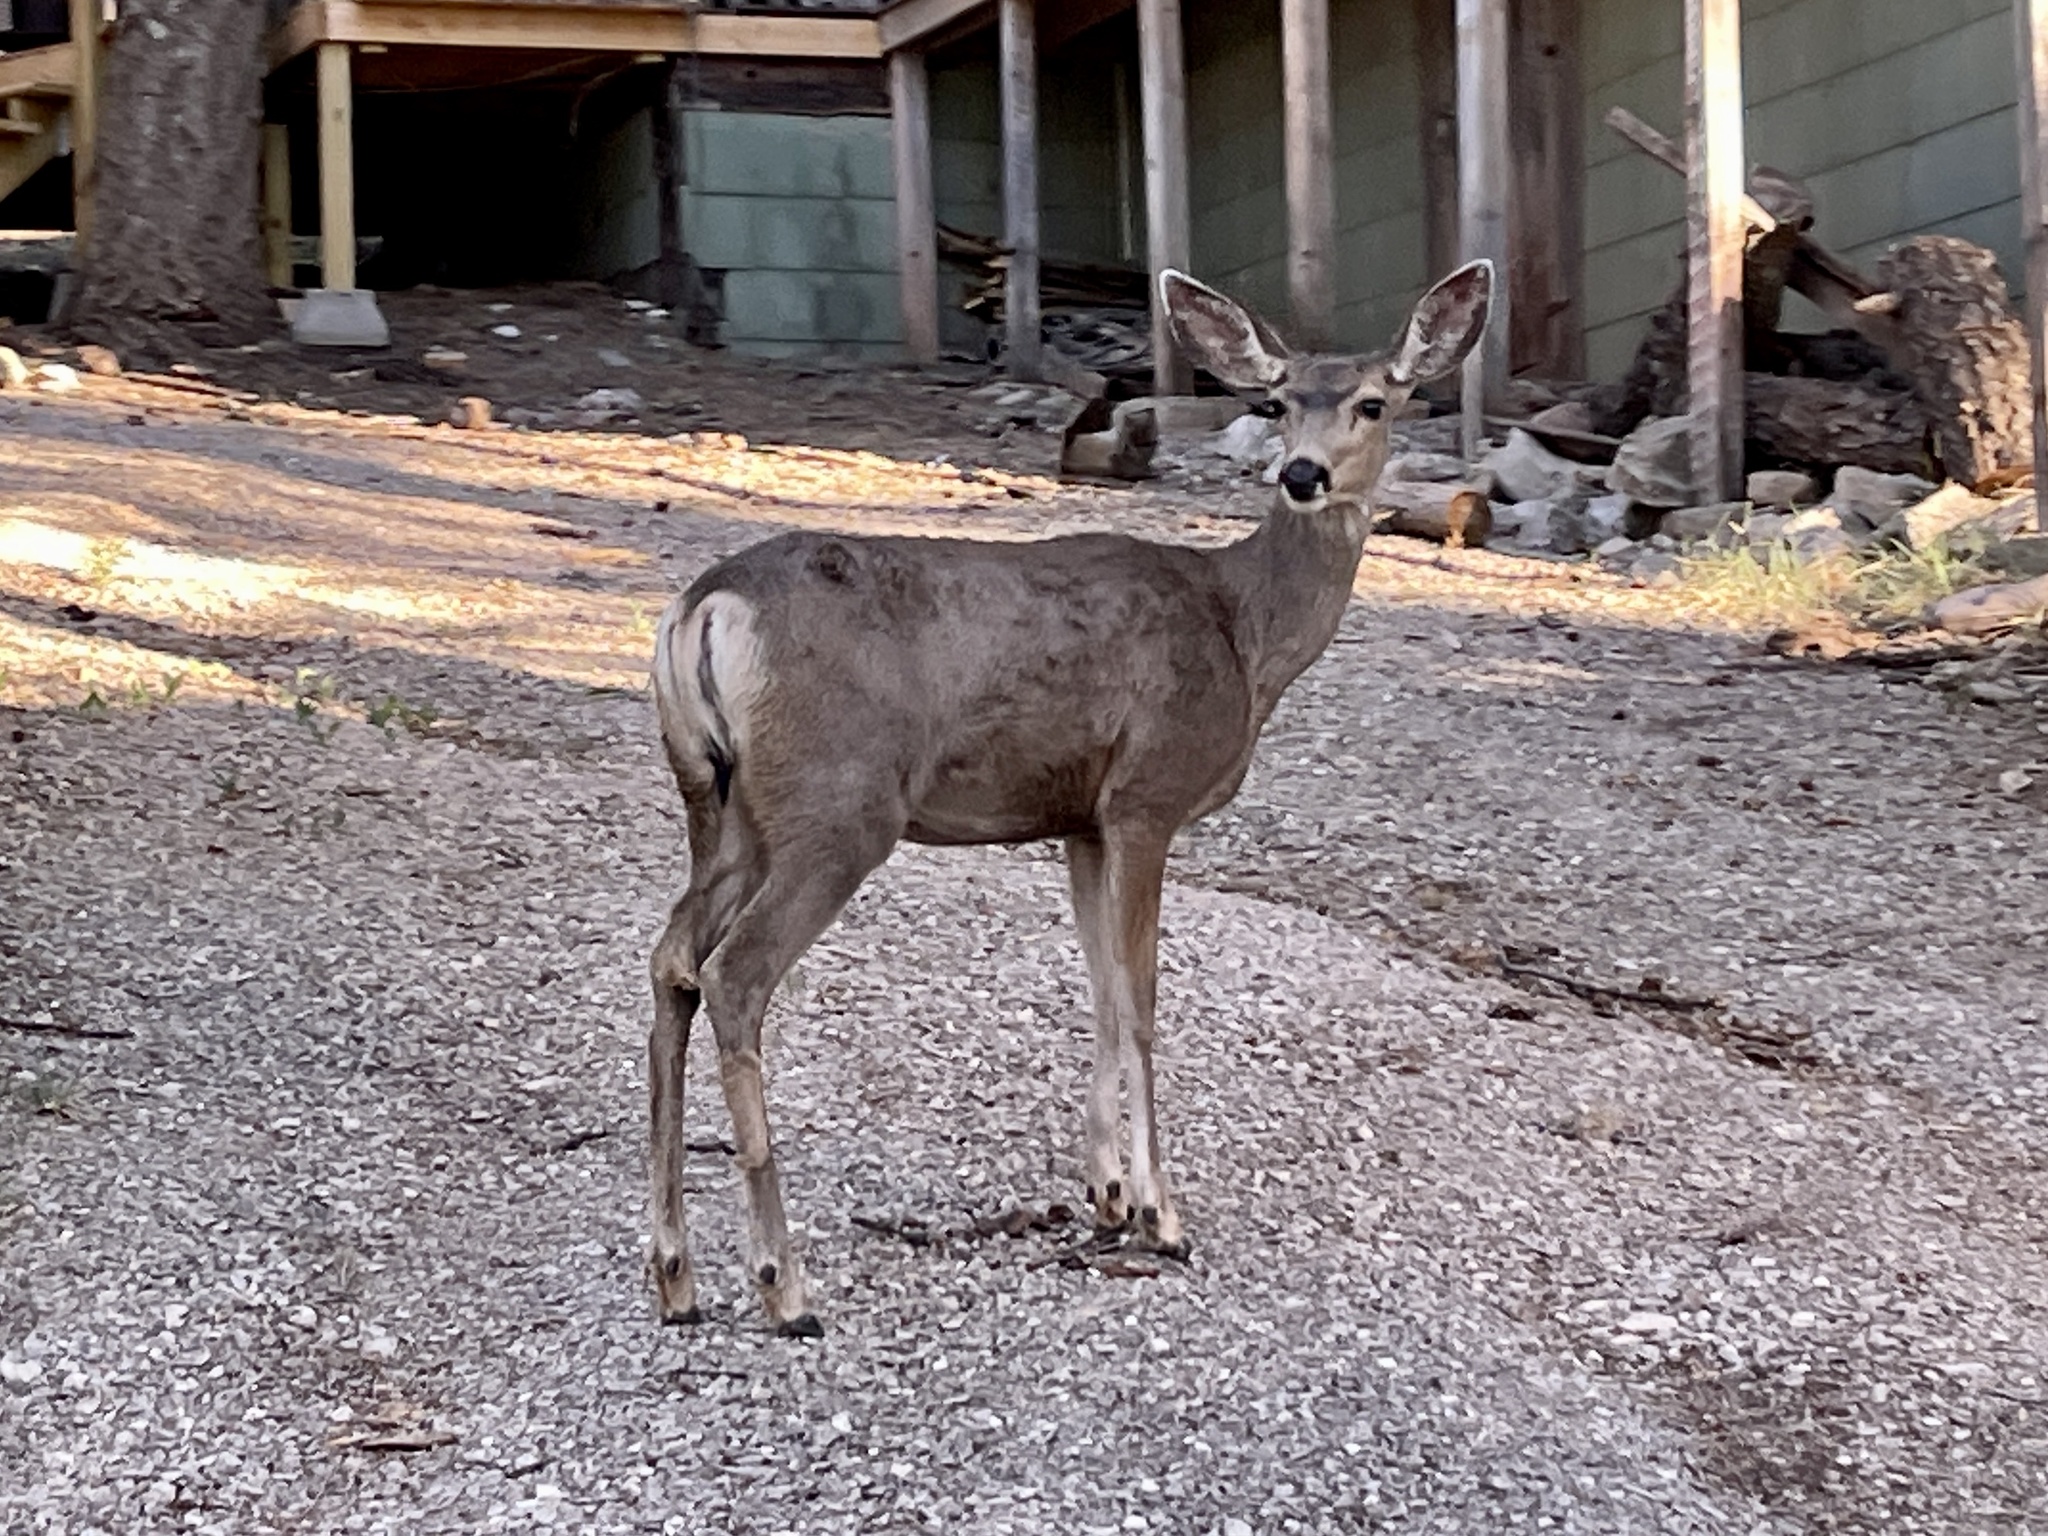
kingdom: Animalia
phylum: Chordata
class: Mammalia
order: Artiodactyla
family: Cervidae
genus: Odocoileus
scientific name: Odocoileus hemionus
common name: Mule deer
